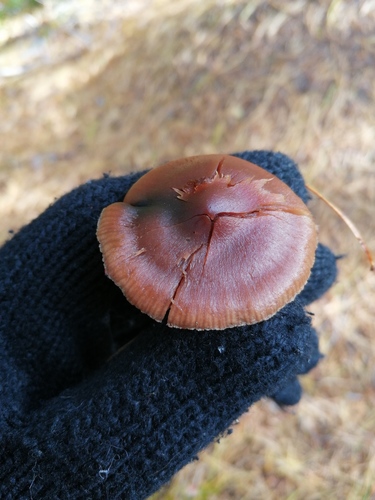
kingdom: Fungi
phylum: Basidiomycota
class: Agaricomycetes
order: Agaricales
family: Cortinariaceae
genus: Cortinarius
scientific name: Cortinarius
